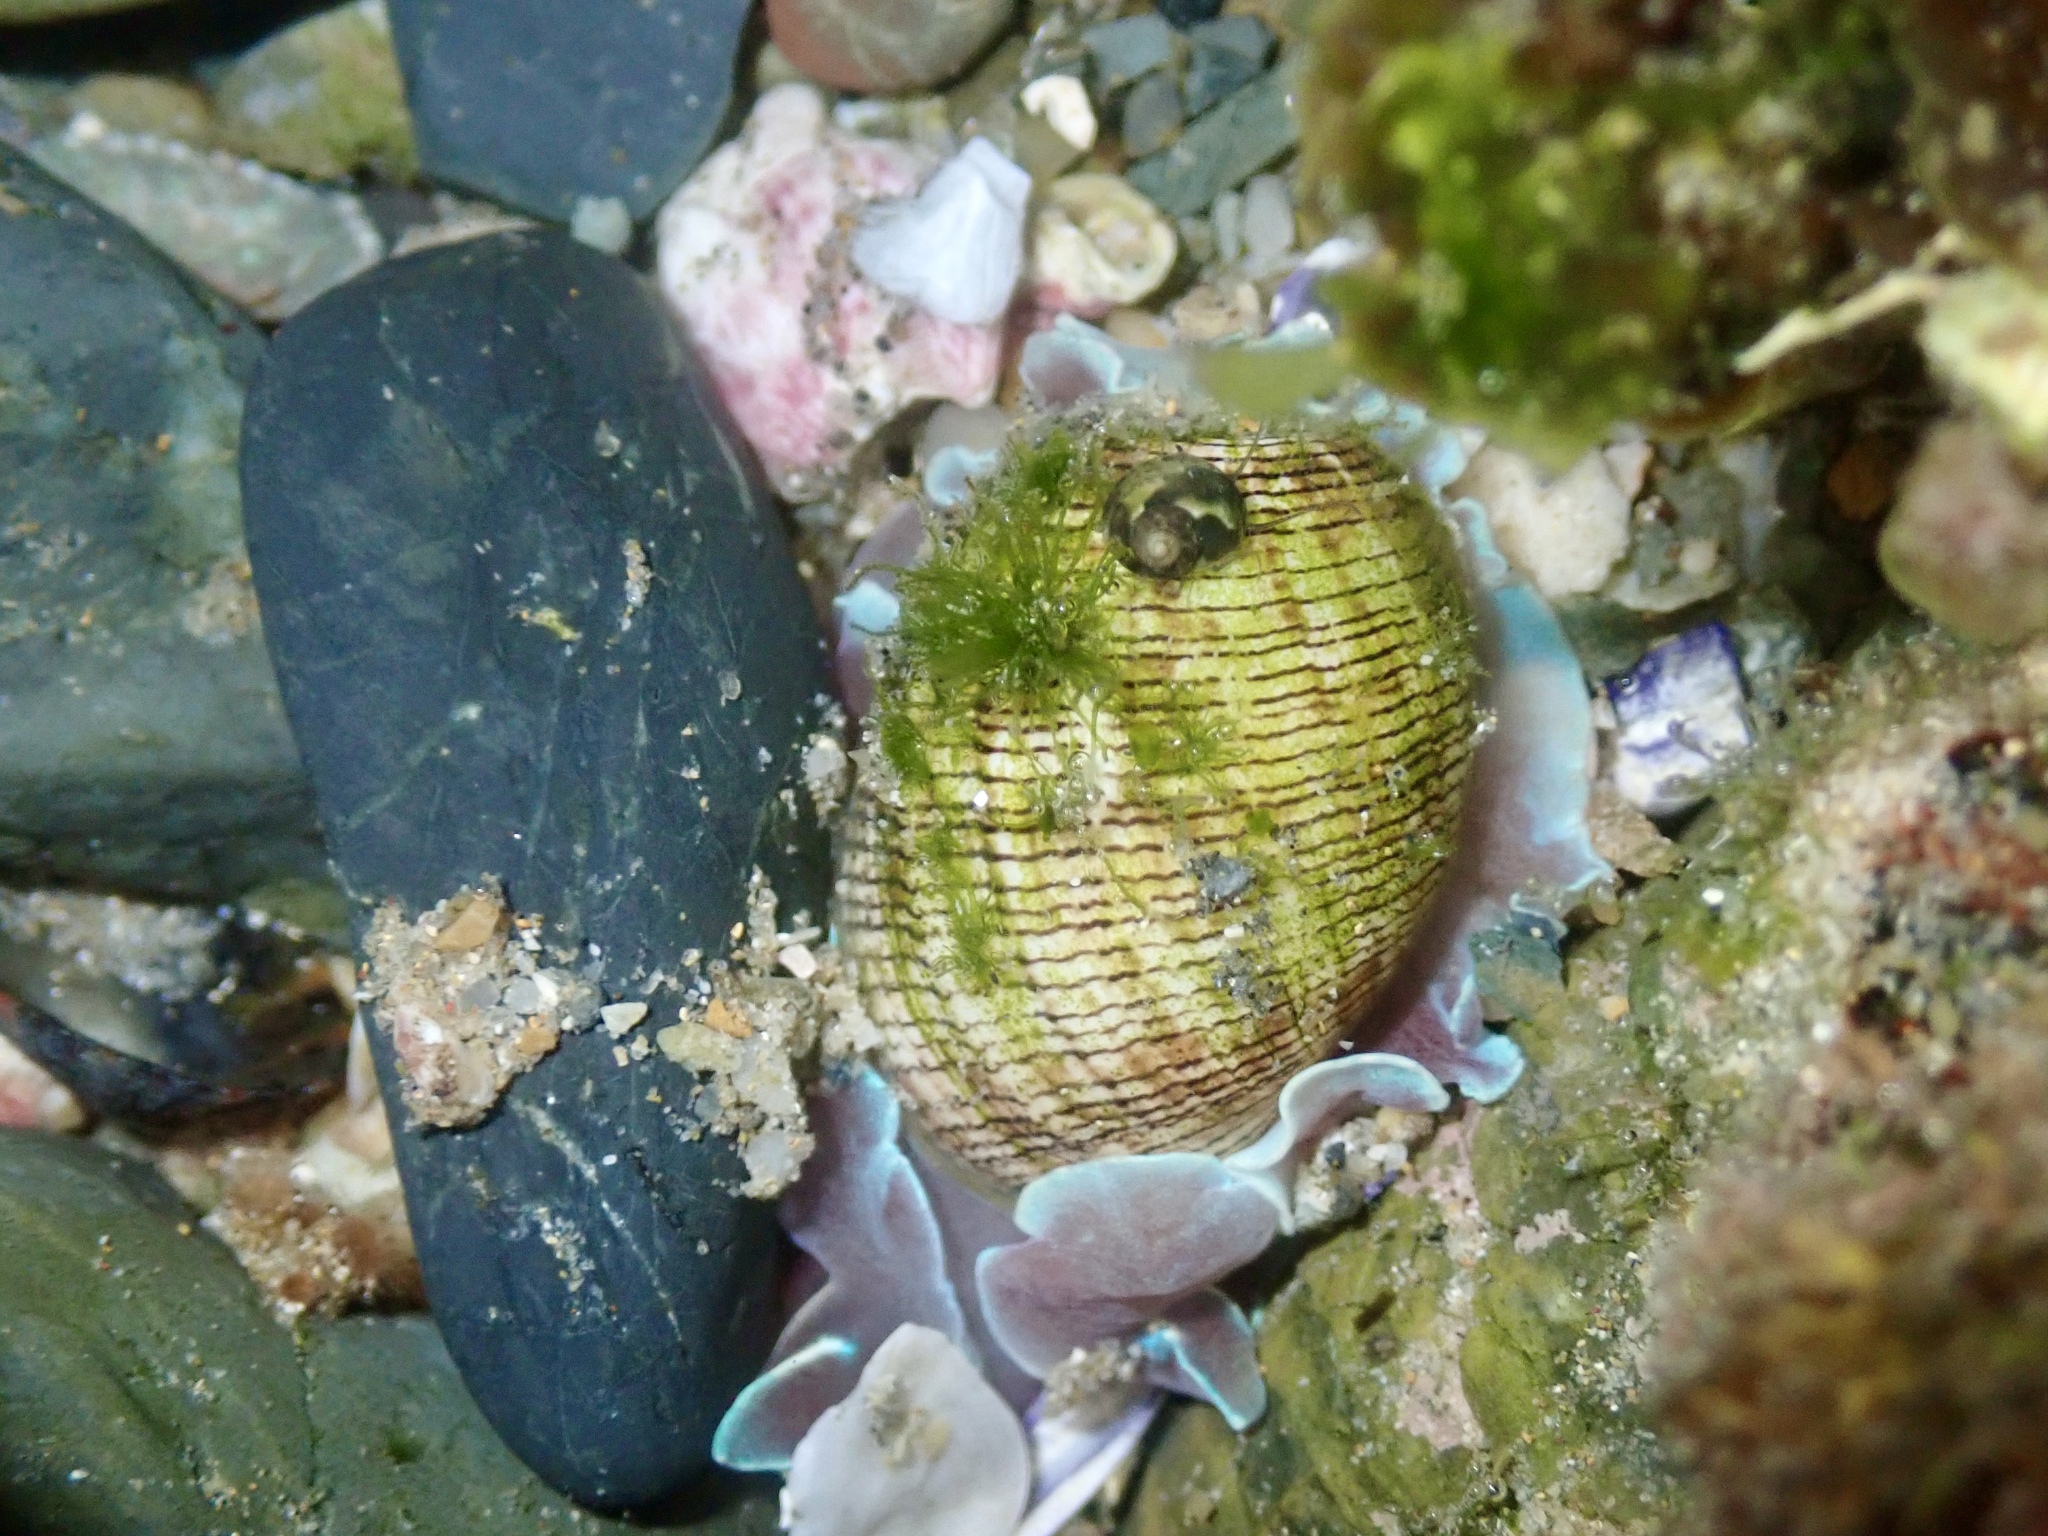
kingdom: Animalia
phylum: Mollusca
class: Gastropoda
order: Cephalaspidea
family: Aplustridae
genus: Hydatina
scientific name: Hydatina physis
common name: Brown-line paperbubble
